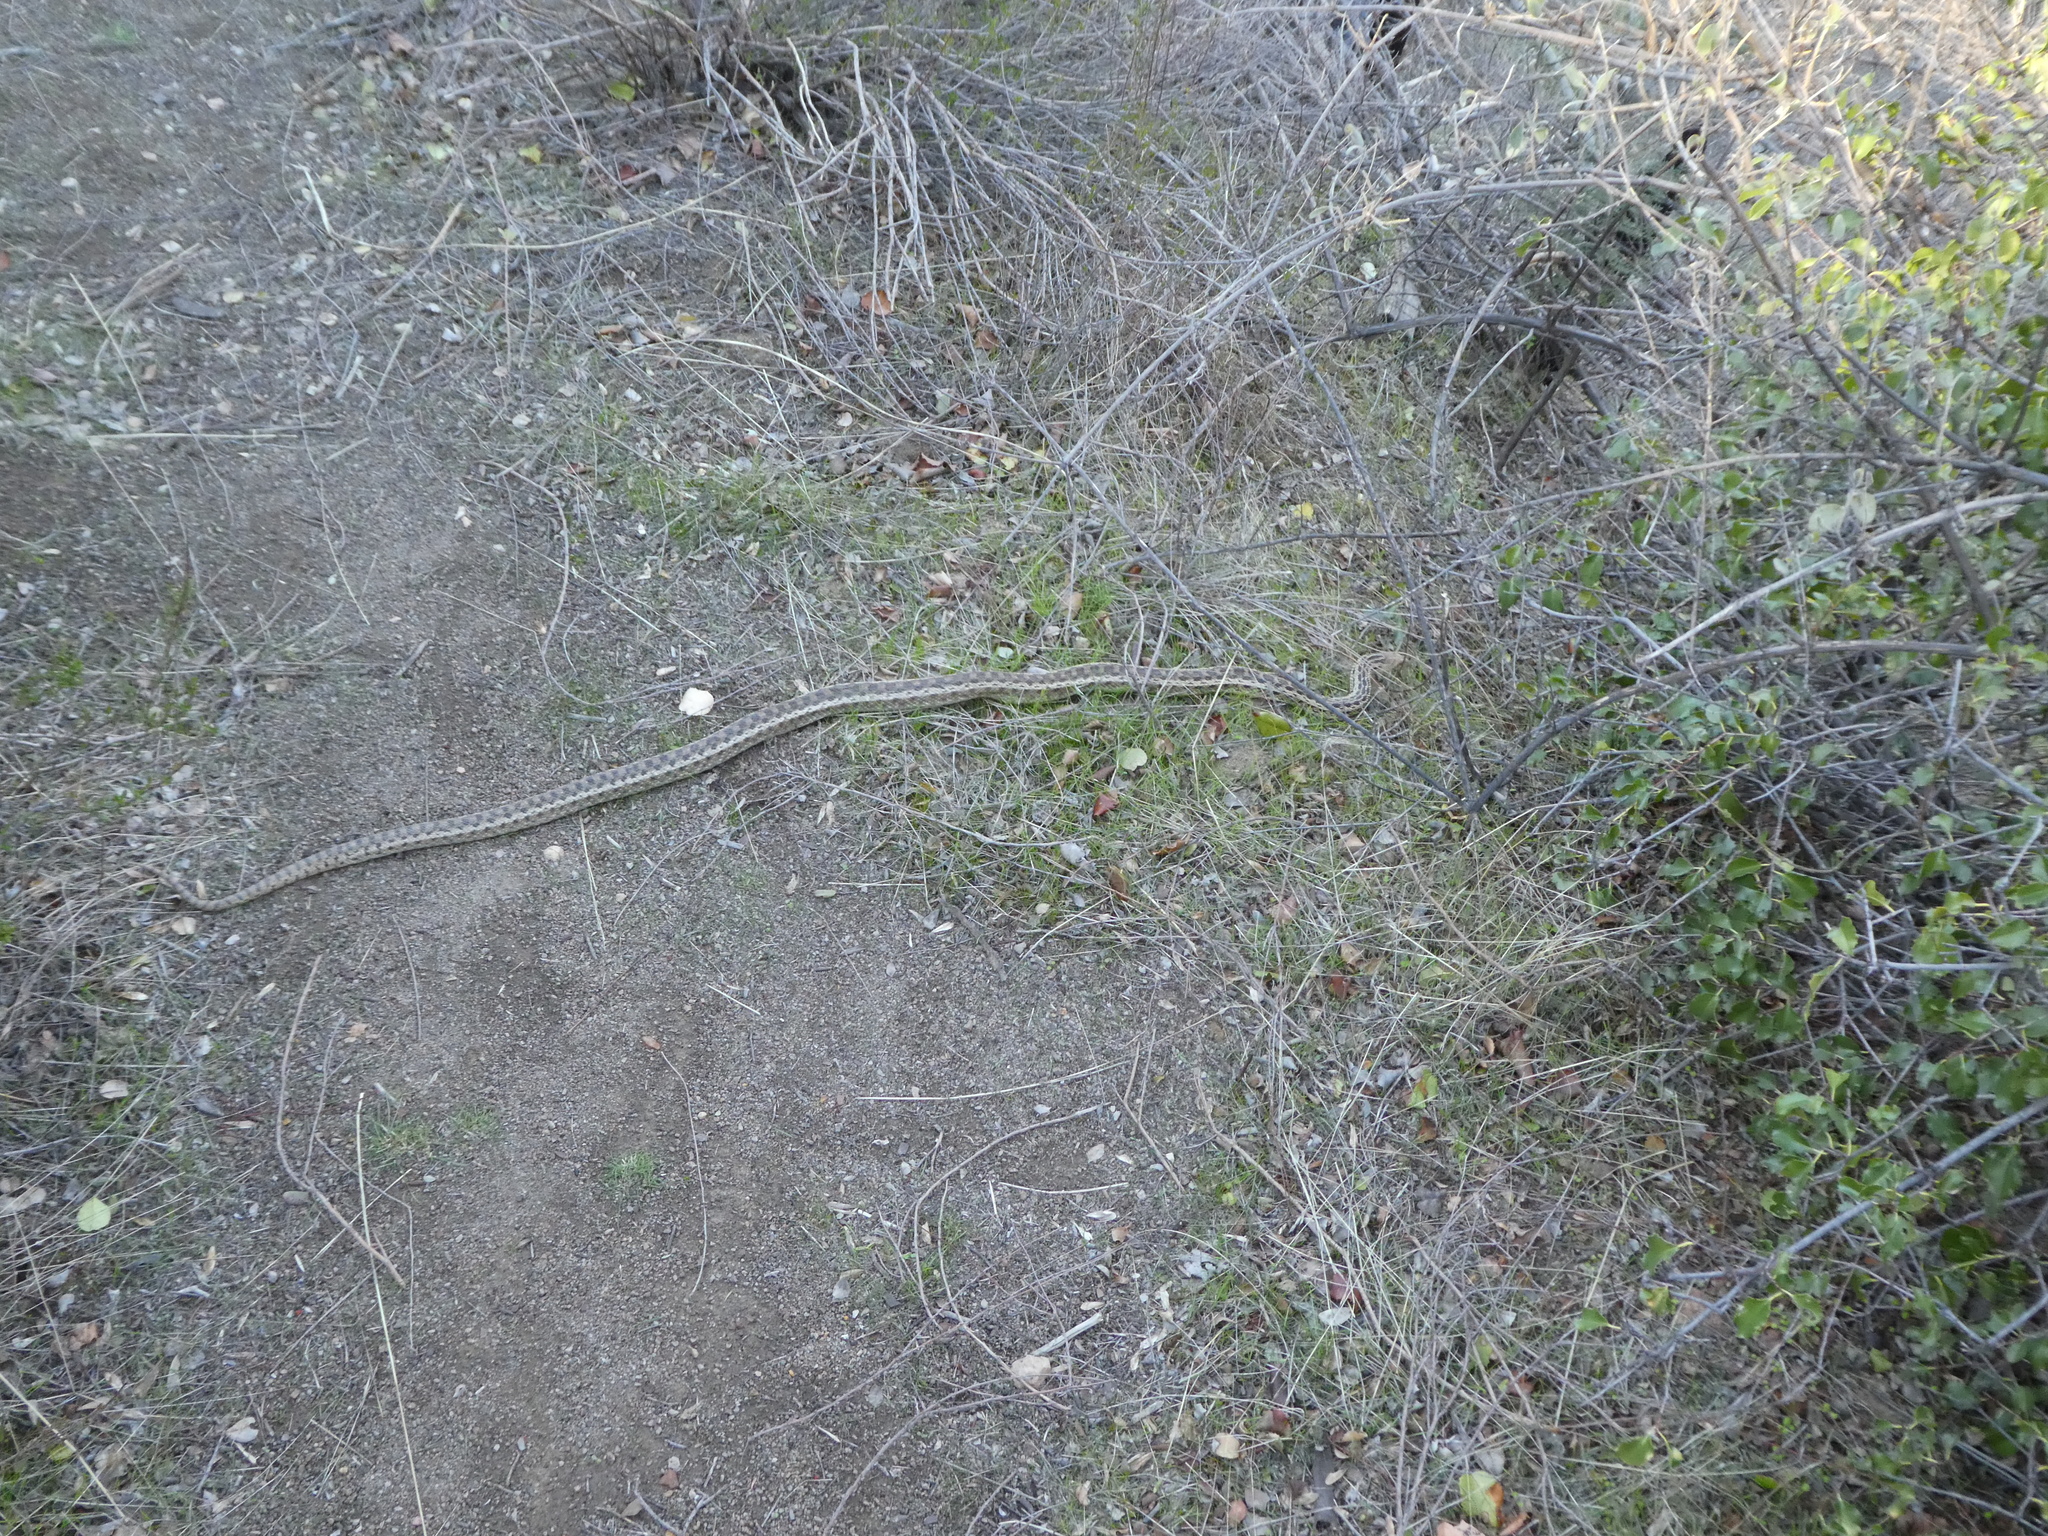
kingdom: Animalia
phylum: Chordata
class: Squamata
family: Colubridae
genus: Pituophis
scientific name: Pituophis catenifer
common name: Gopher snake
